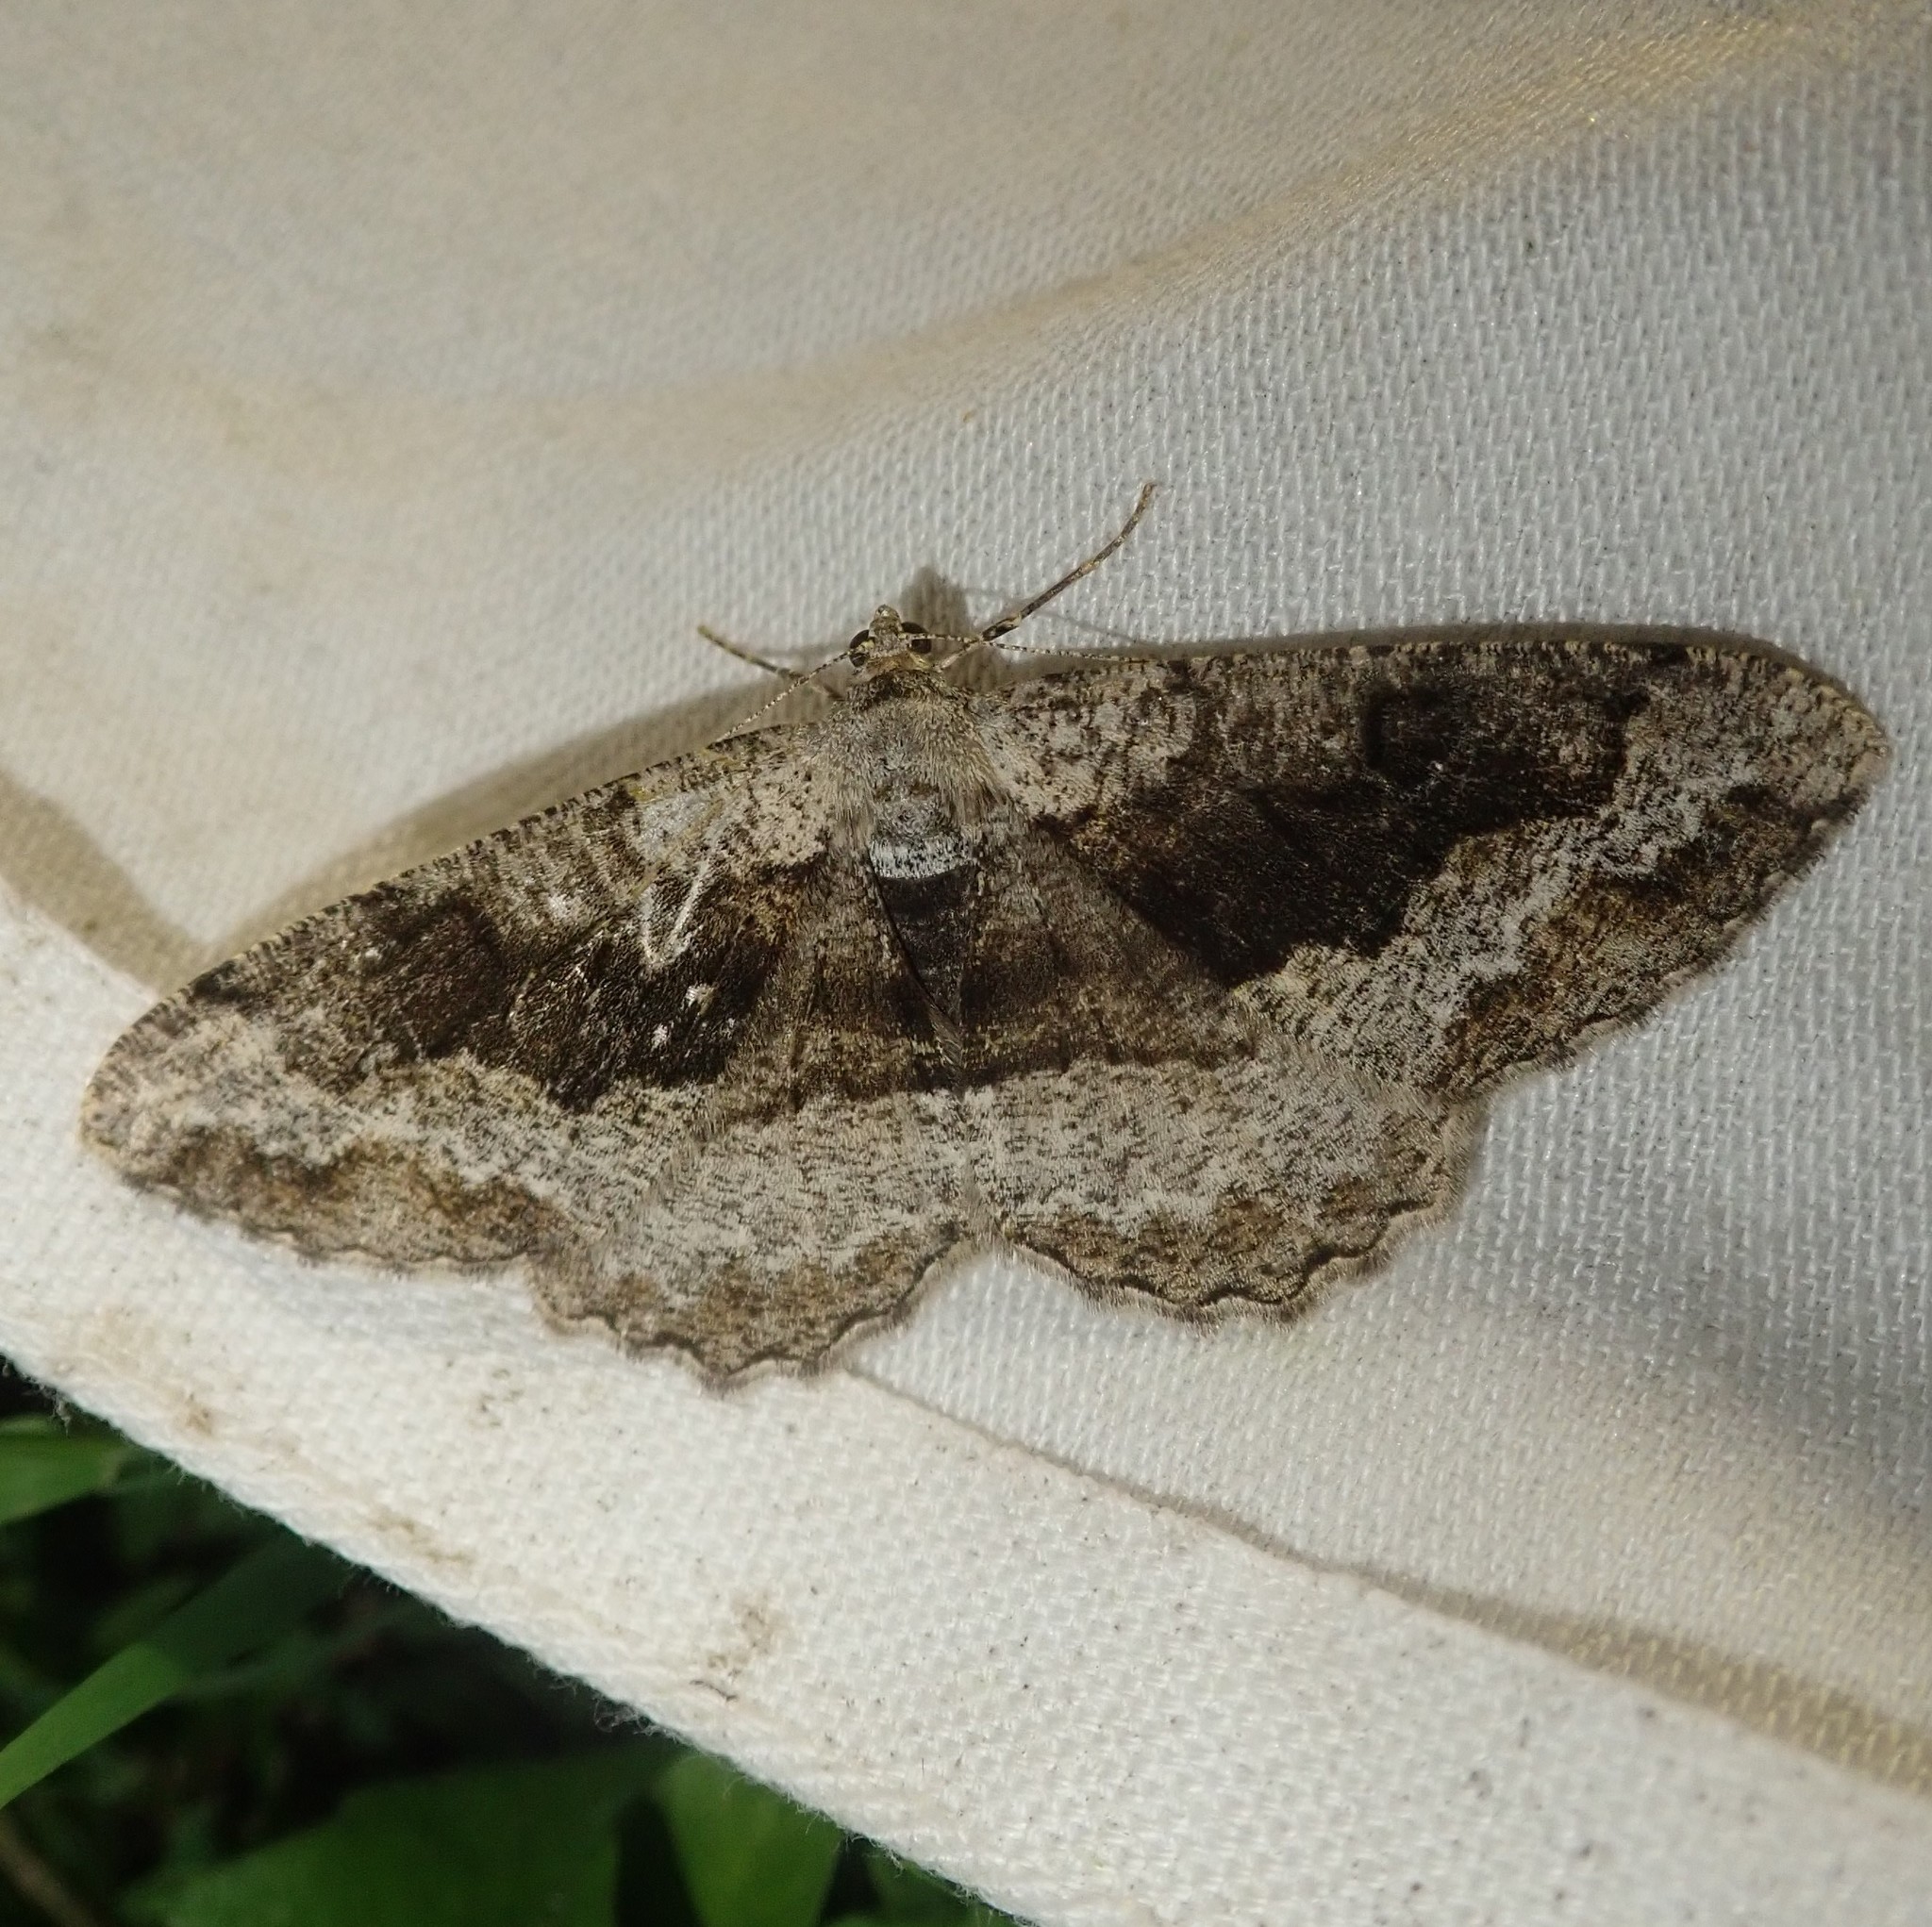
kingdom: Animalia
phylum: Arthropoda
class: Insecta
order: Lepidoptera
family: Geometridae
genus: Alcis
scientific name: Alcis repandata
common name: Mottled beauty
